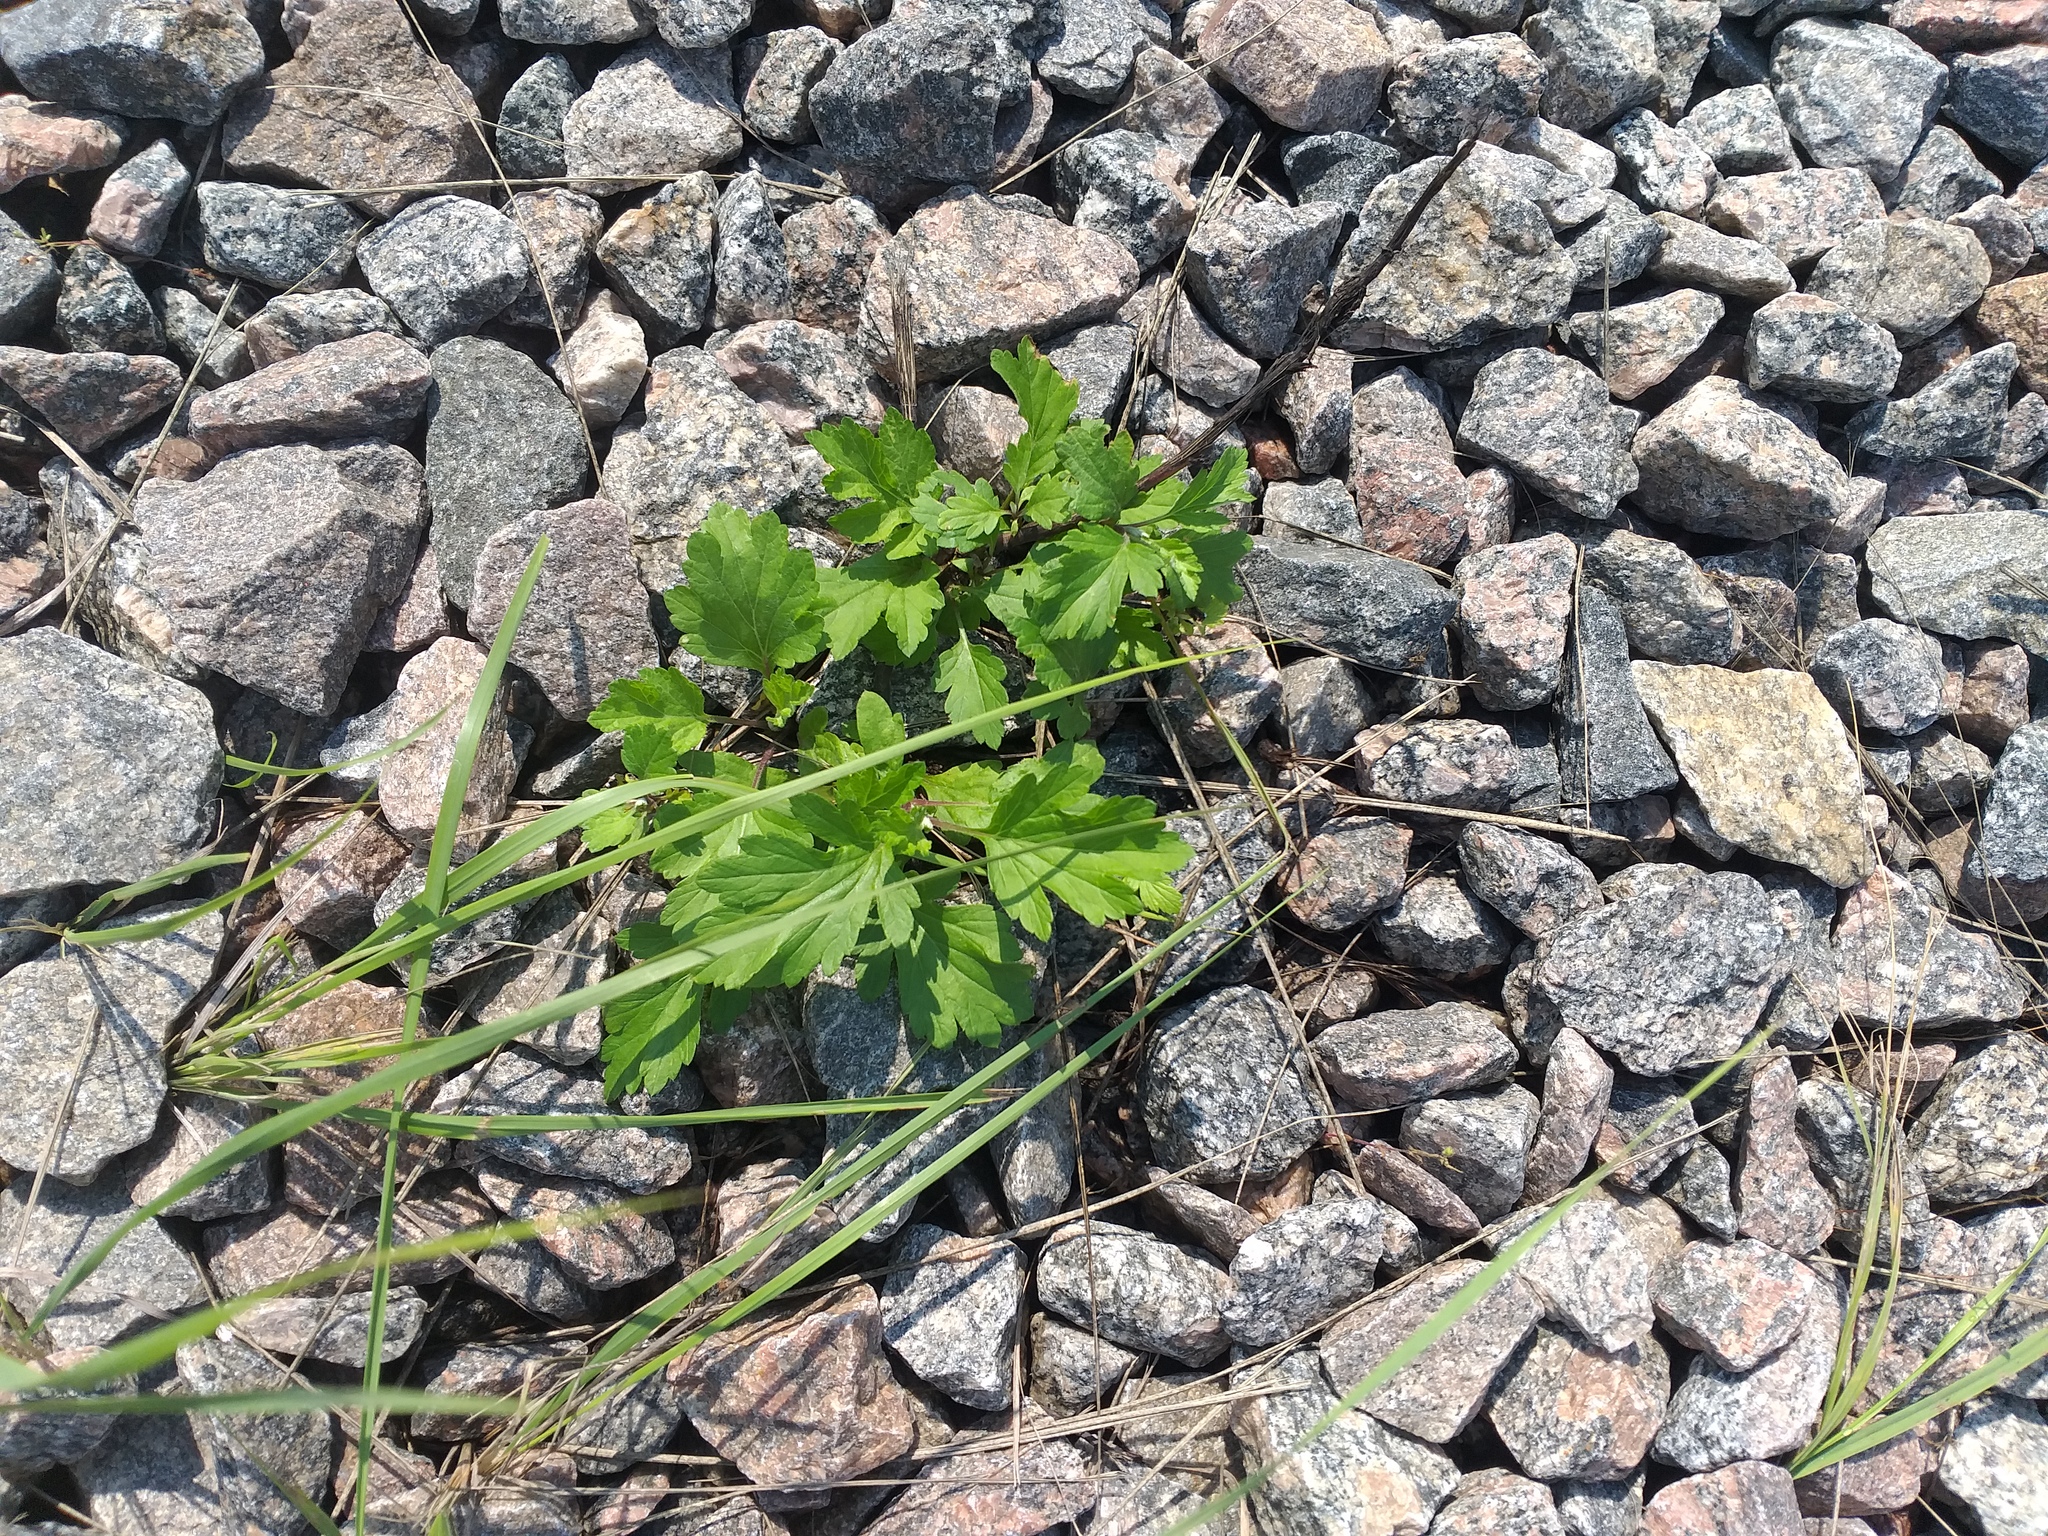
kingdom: Plantae
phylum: Tracheophyta
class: Magnoliopsida
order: Asterales
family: Asteraceae
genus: Artemisia
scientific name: Artemisia vulgaris
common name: Mugwort
